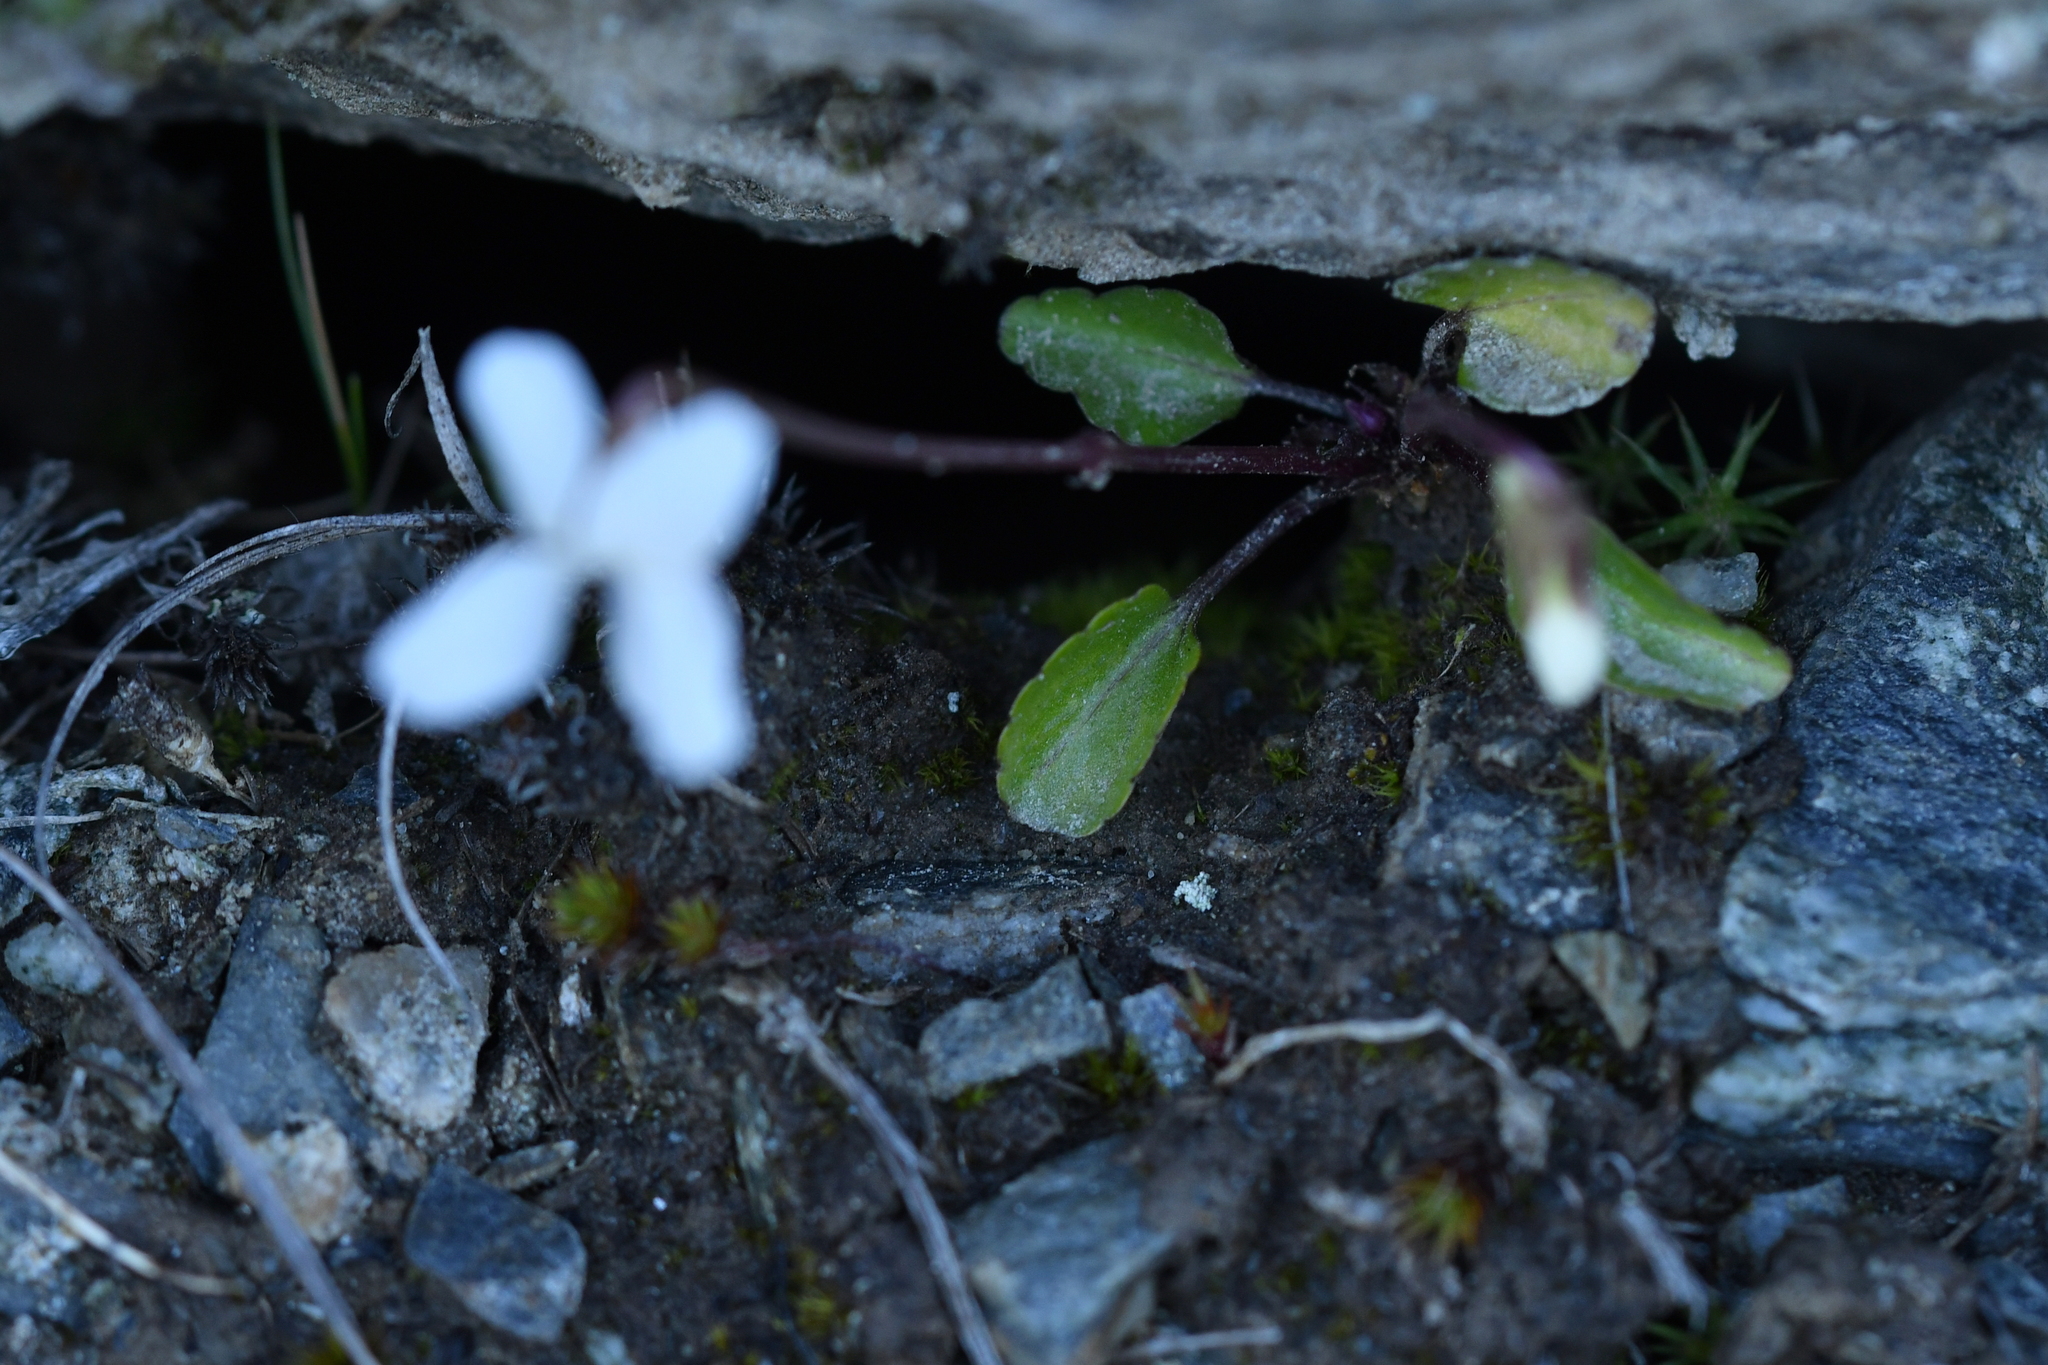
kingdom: Plantae
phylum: Tracheophyta
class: Magnoliopsida
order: Malpighiales
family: Violaceae
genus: Viola
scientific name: Viola cunninghamii
